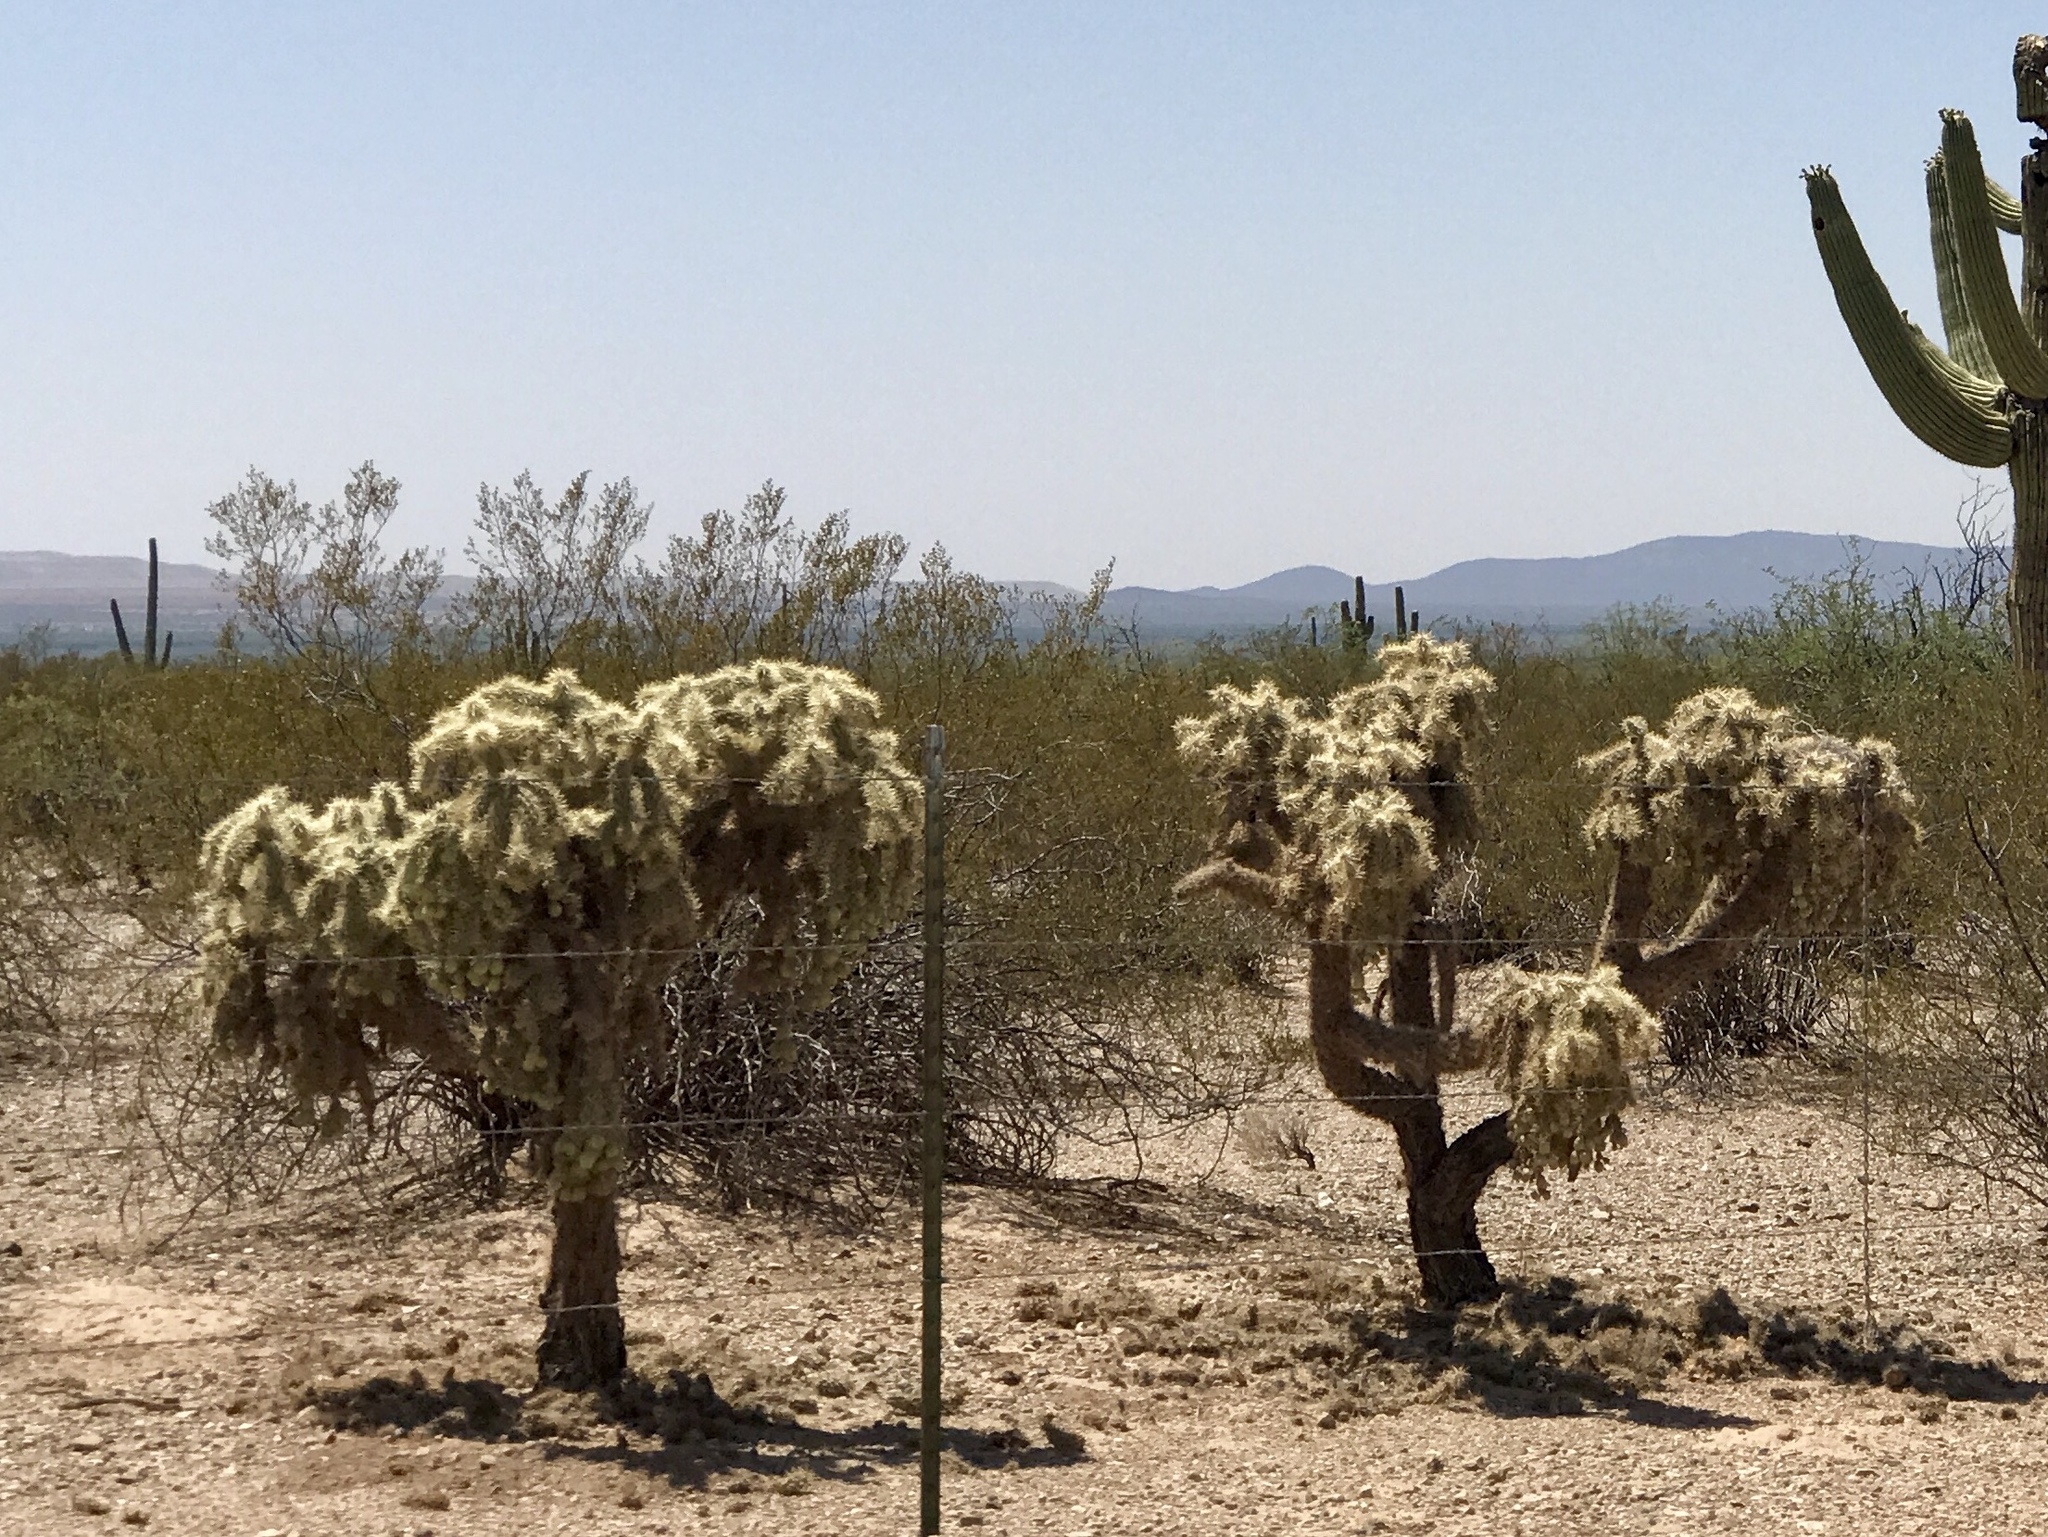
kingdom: Plantae
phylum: Tracheophyta
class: Magnoliopsida
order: Caryophyllales
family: Cactaceae
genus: Cylindropuntia
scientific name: Cylindropuntia fulgida
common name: Jumping cholla
